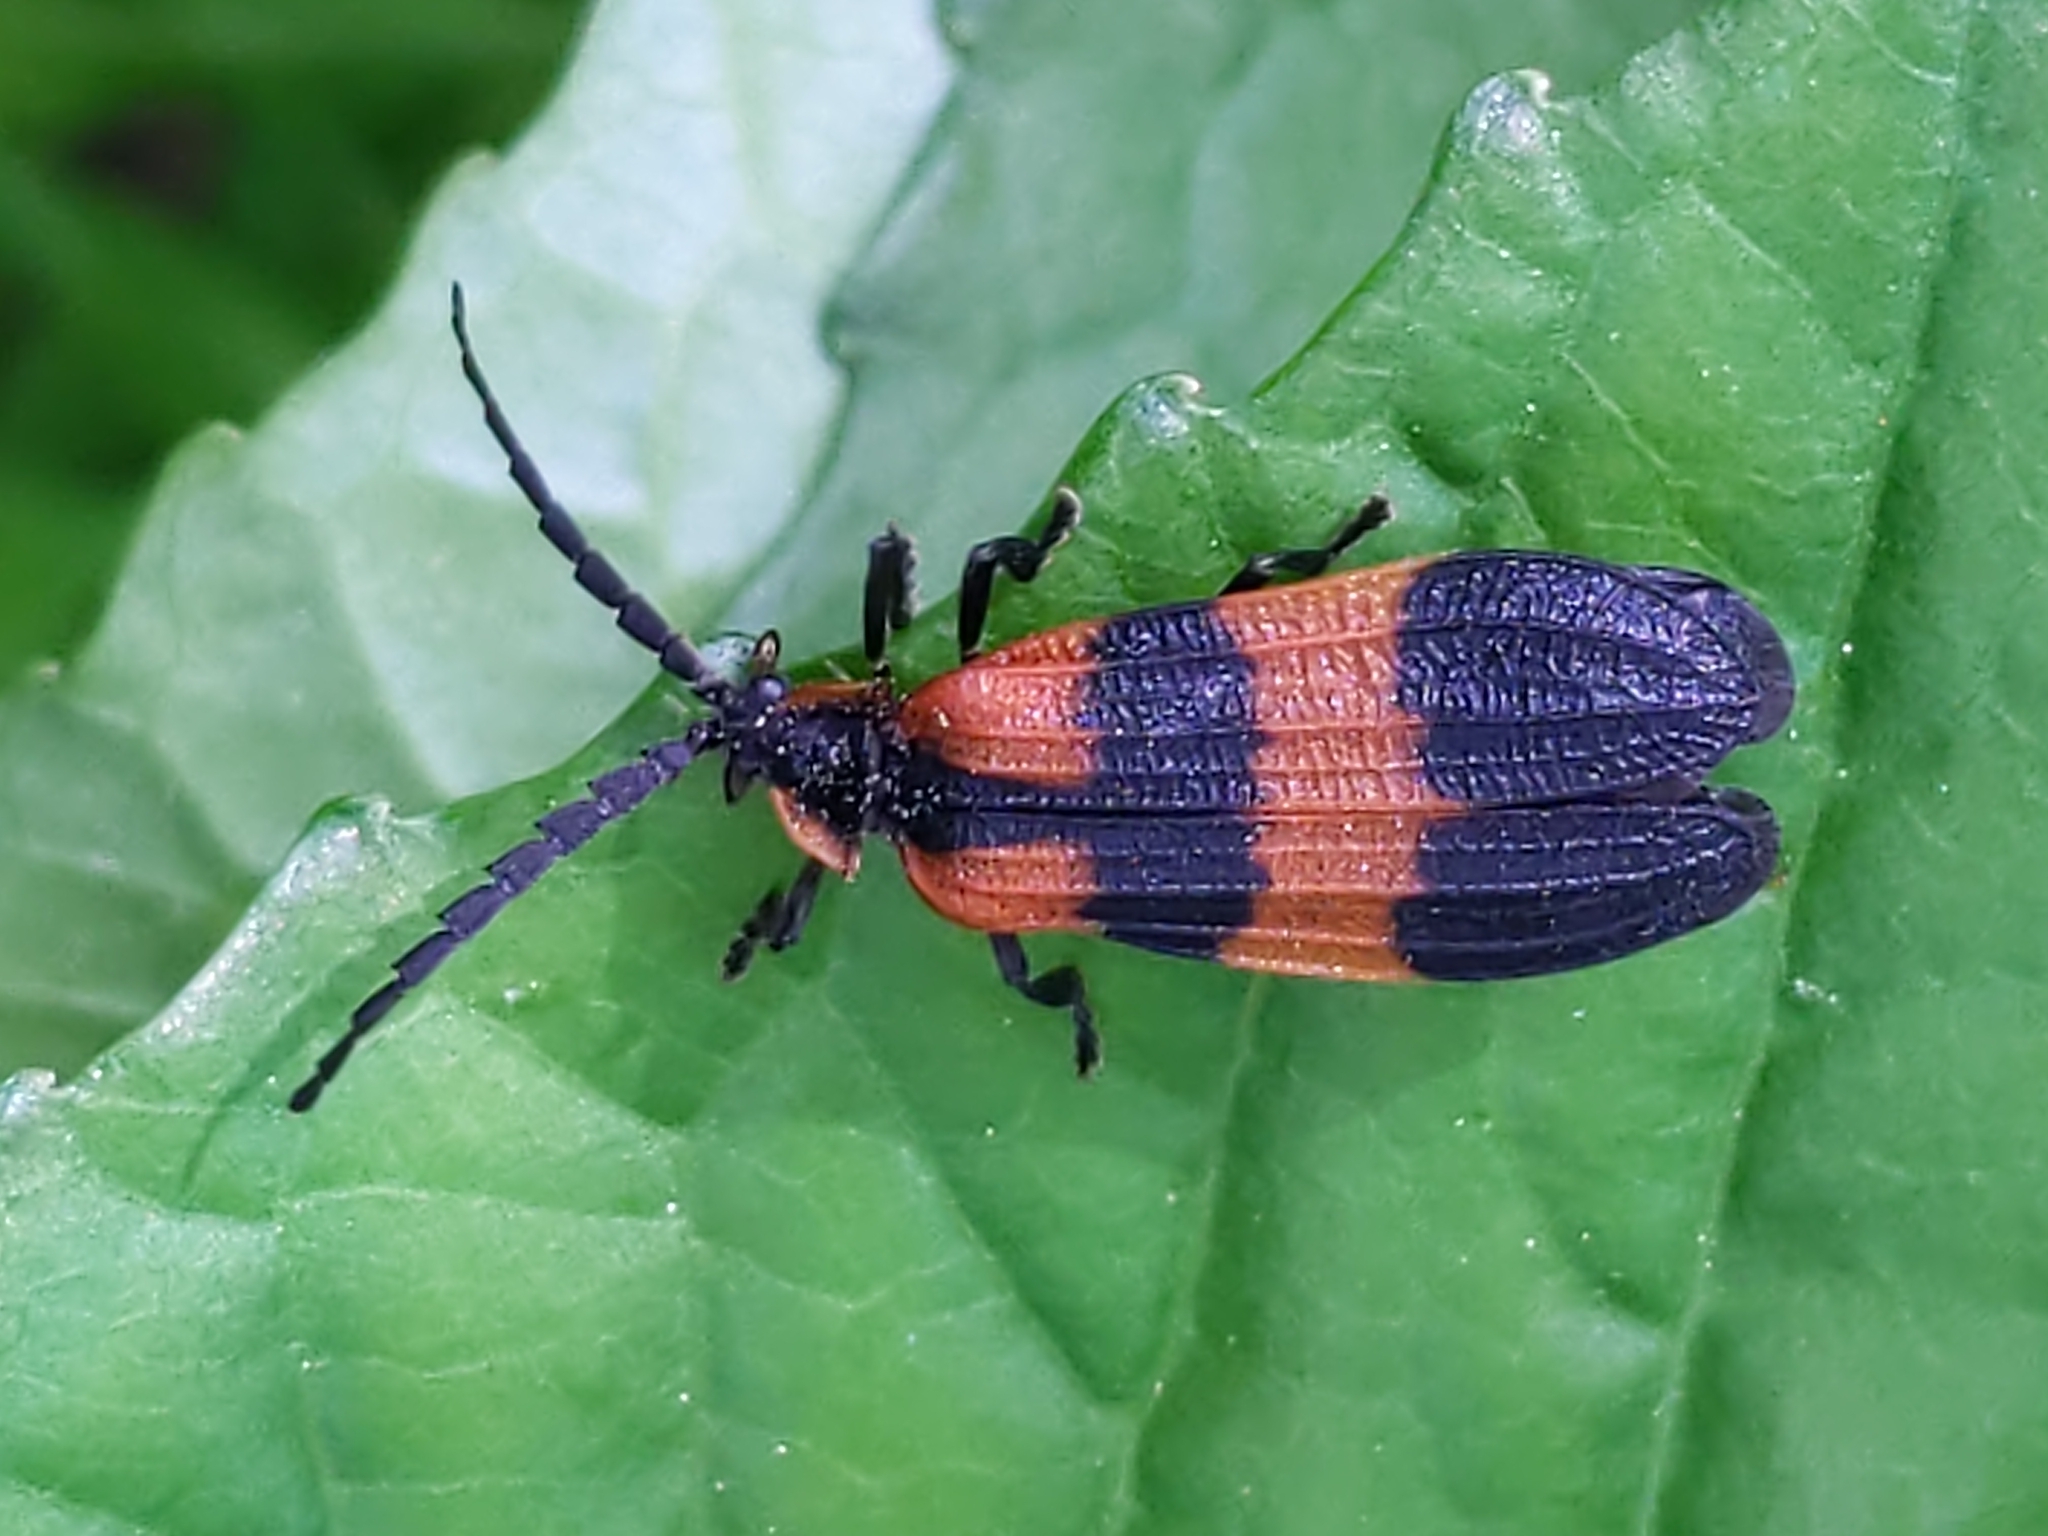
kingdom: Animalia
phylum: Arthropoda
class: Insecta
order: Coleoptera
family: Lycidae
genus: Calopteron
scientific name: Calopteron reticulatum
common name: Banded net-winged beetle
